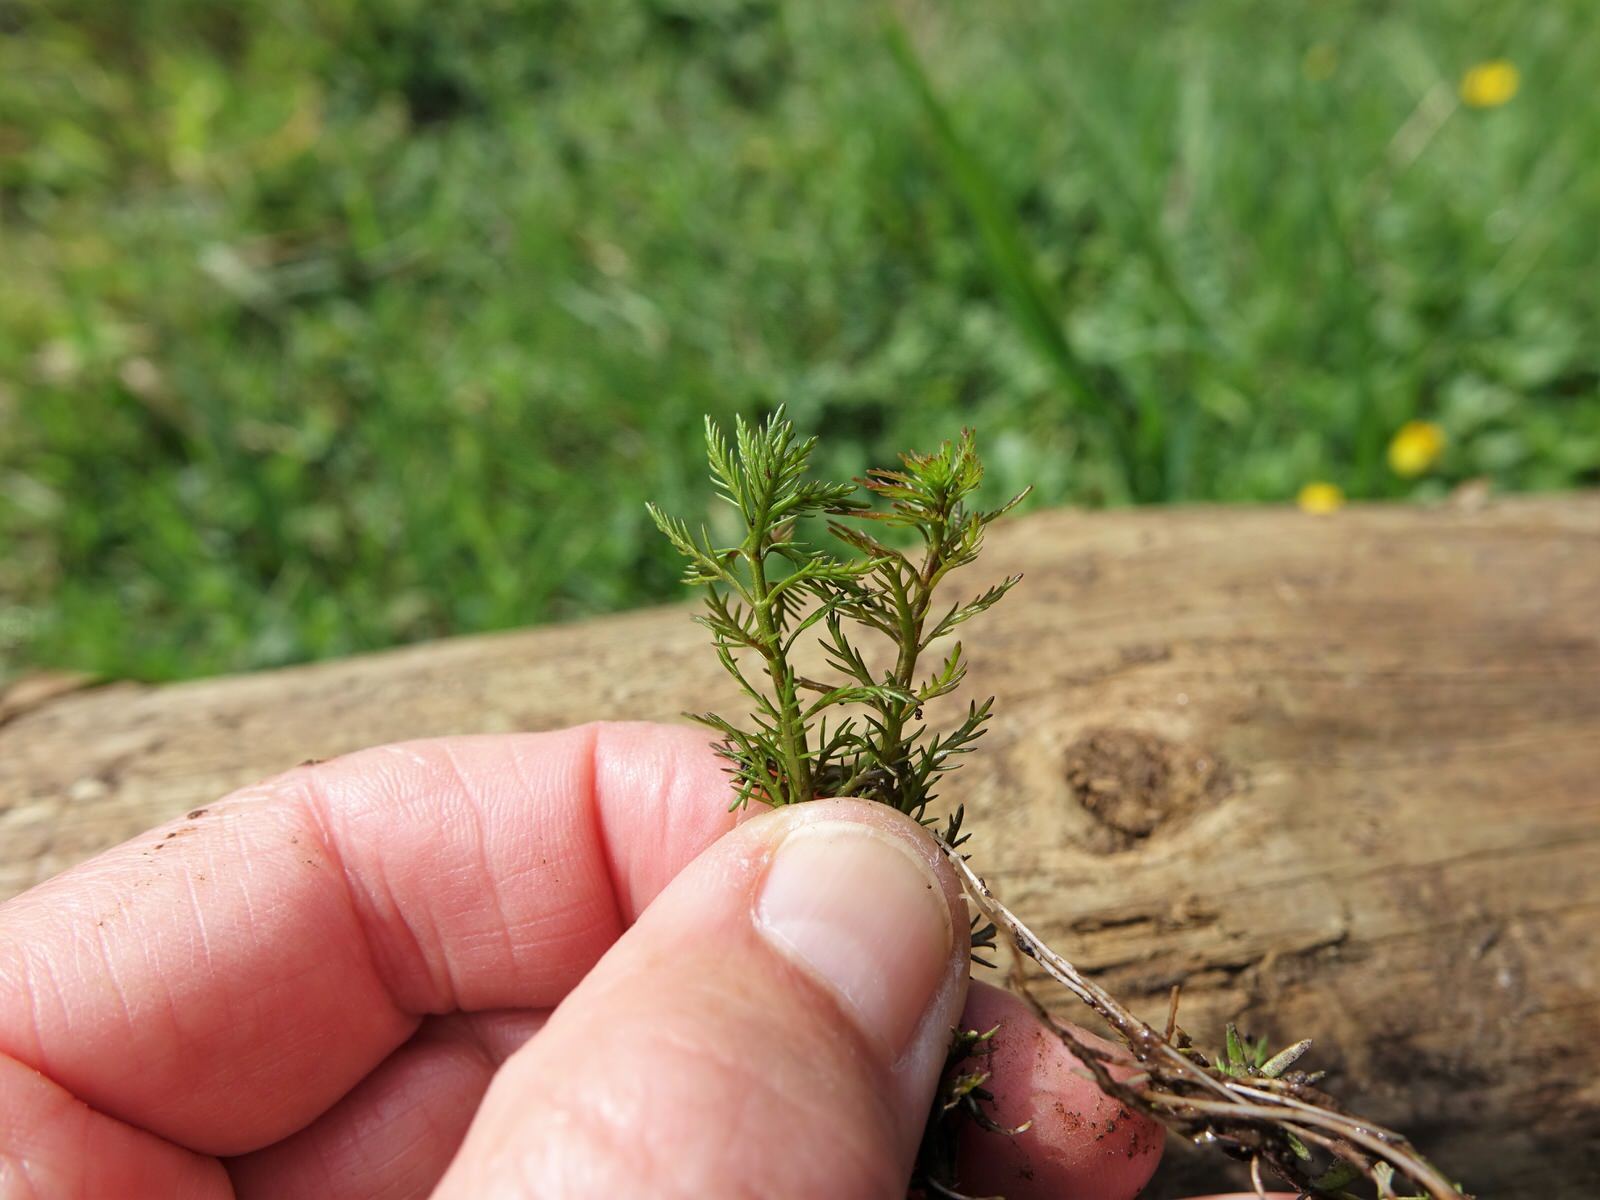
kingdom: Plantae
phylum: Tracheophyta
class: Magnoliopsida
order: Saxifragales
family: Haloragaceae
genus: Myriophyllum
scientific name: Myriophyllum propinquum
